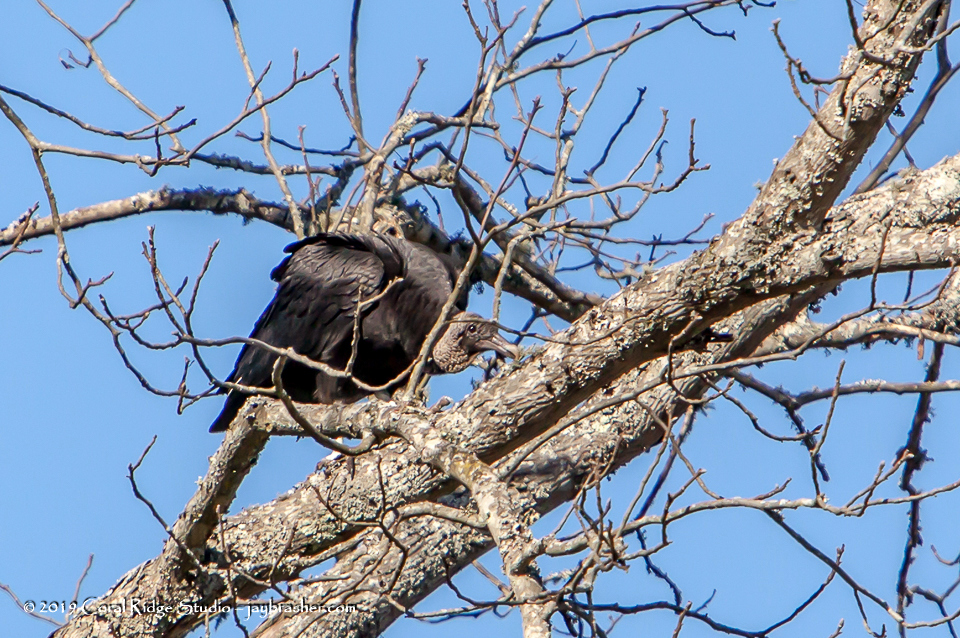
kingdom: Animalia
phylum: Chordata
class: Aves
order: Accipitriformes
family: Cathartidae
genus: Coragyps
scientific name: Coragyps atratus
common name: Black vulture
